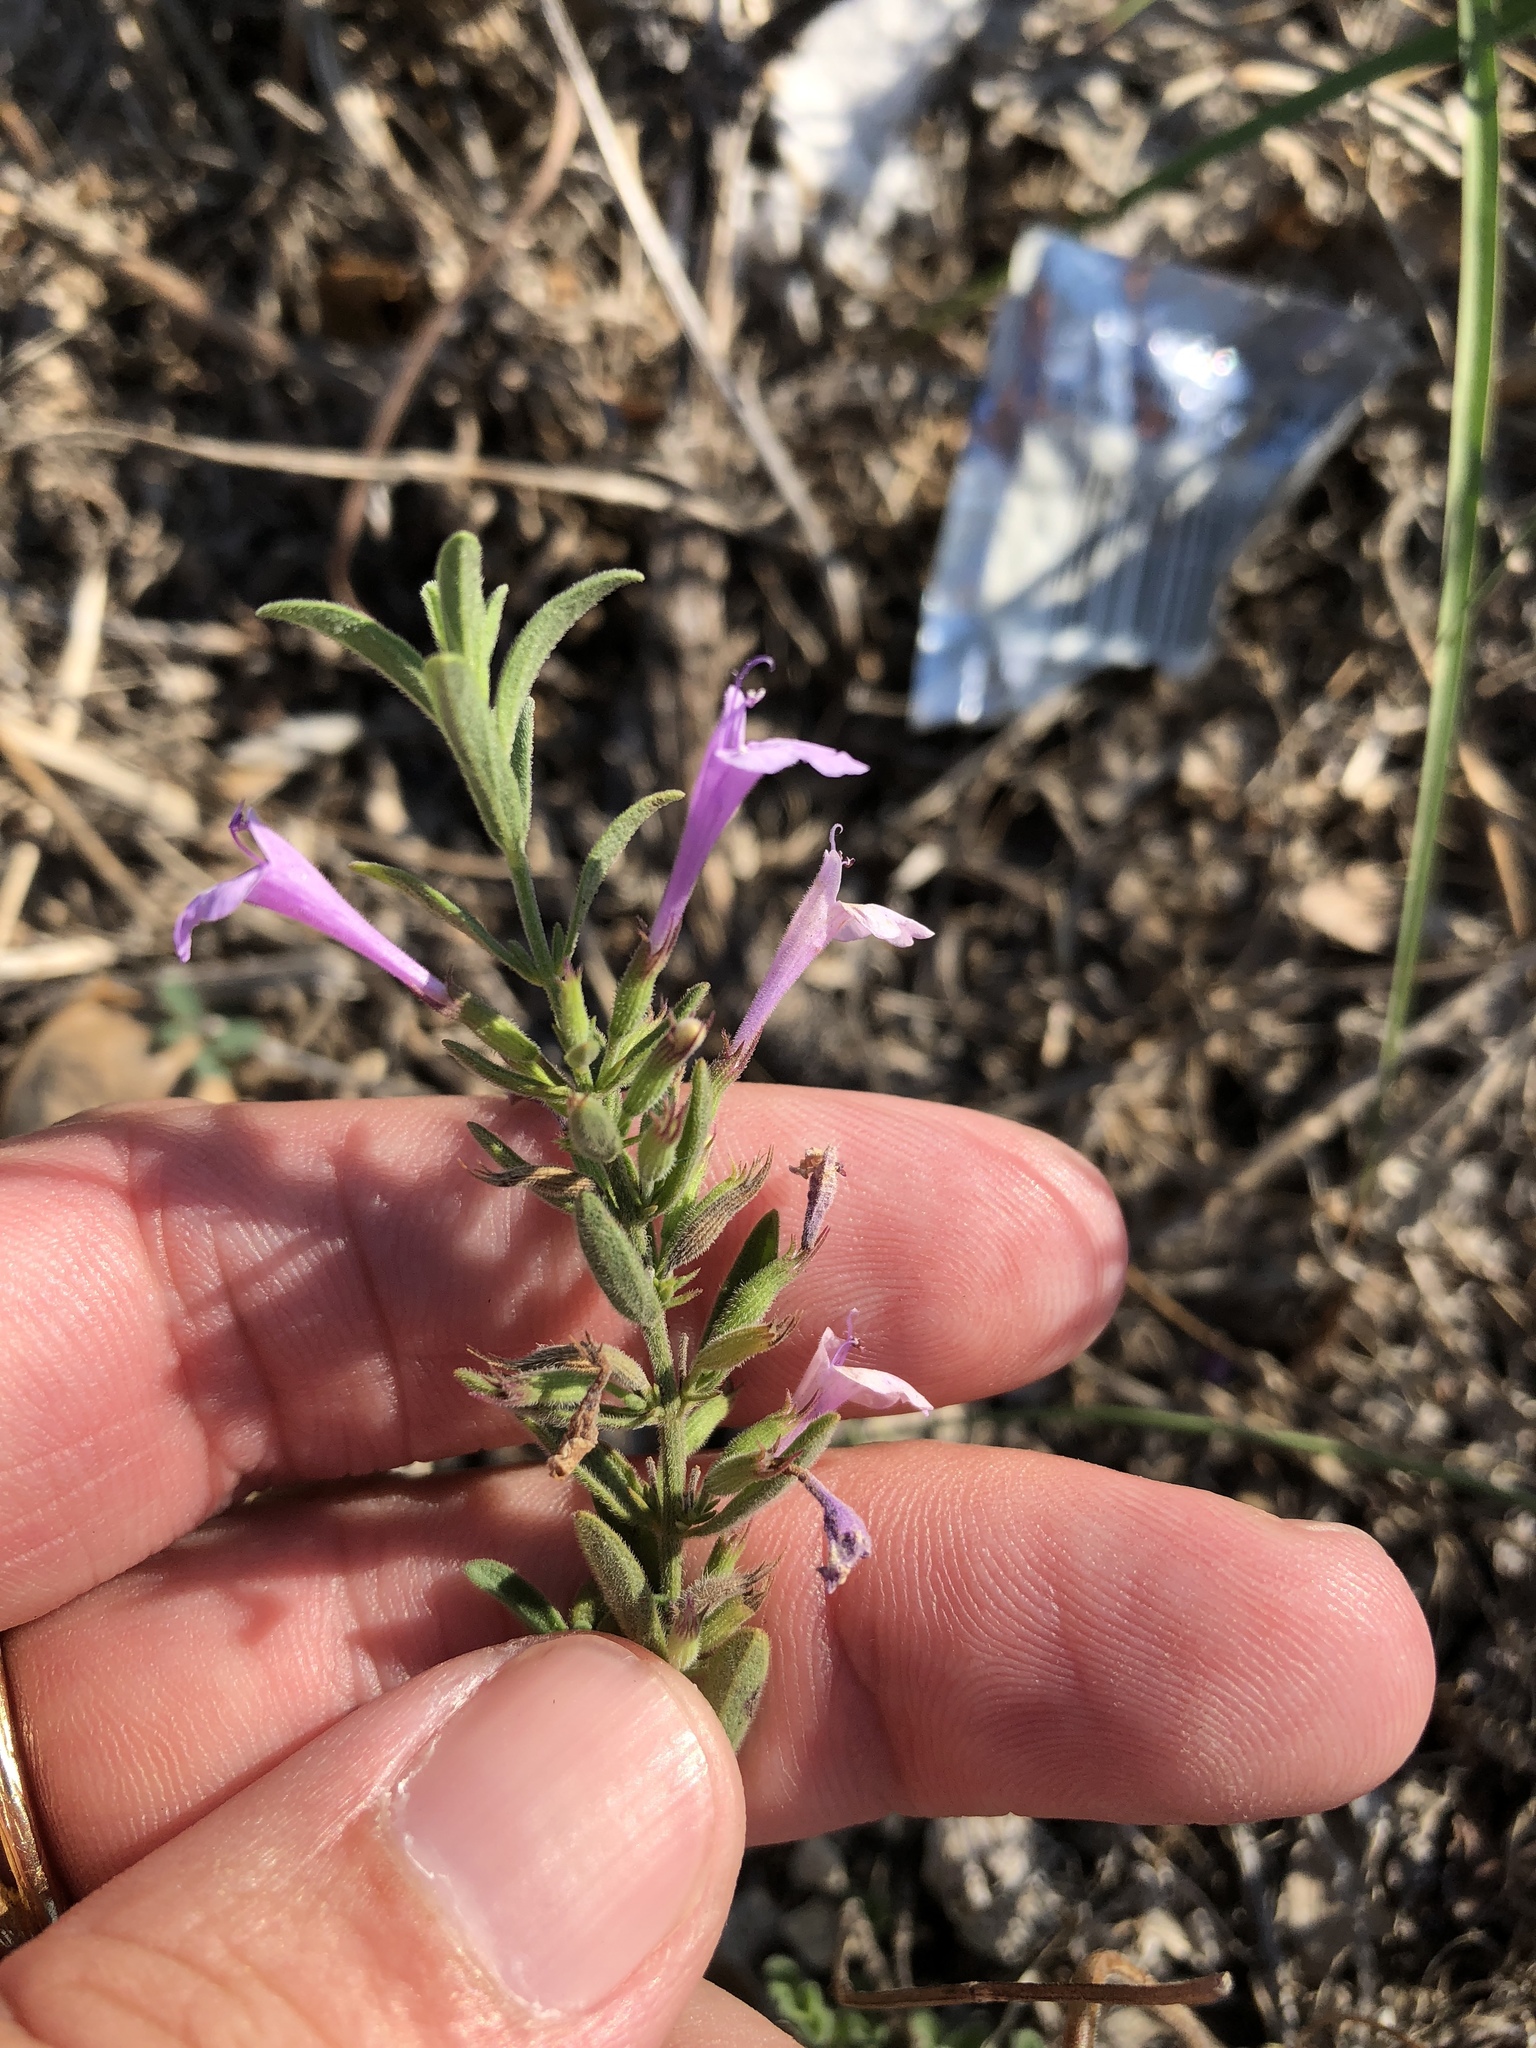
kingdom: Plantae
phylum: Tracheophyta
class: Magnoliopsida
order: Lamiales
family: Lamiaceae
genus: Hedeoma
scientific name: Hedeoma reverchonii
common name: Reverchon's false penny-royal
